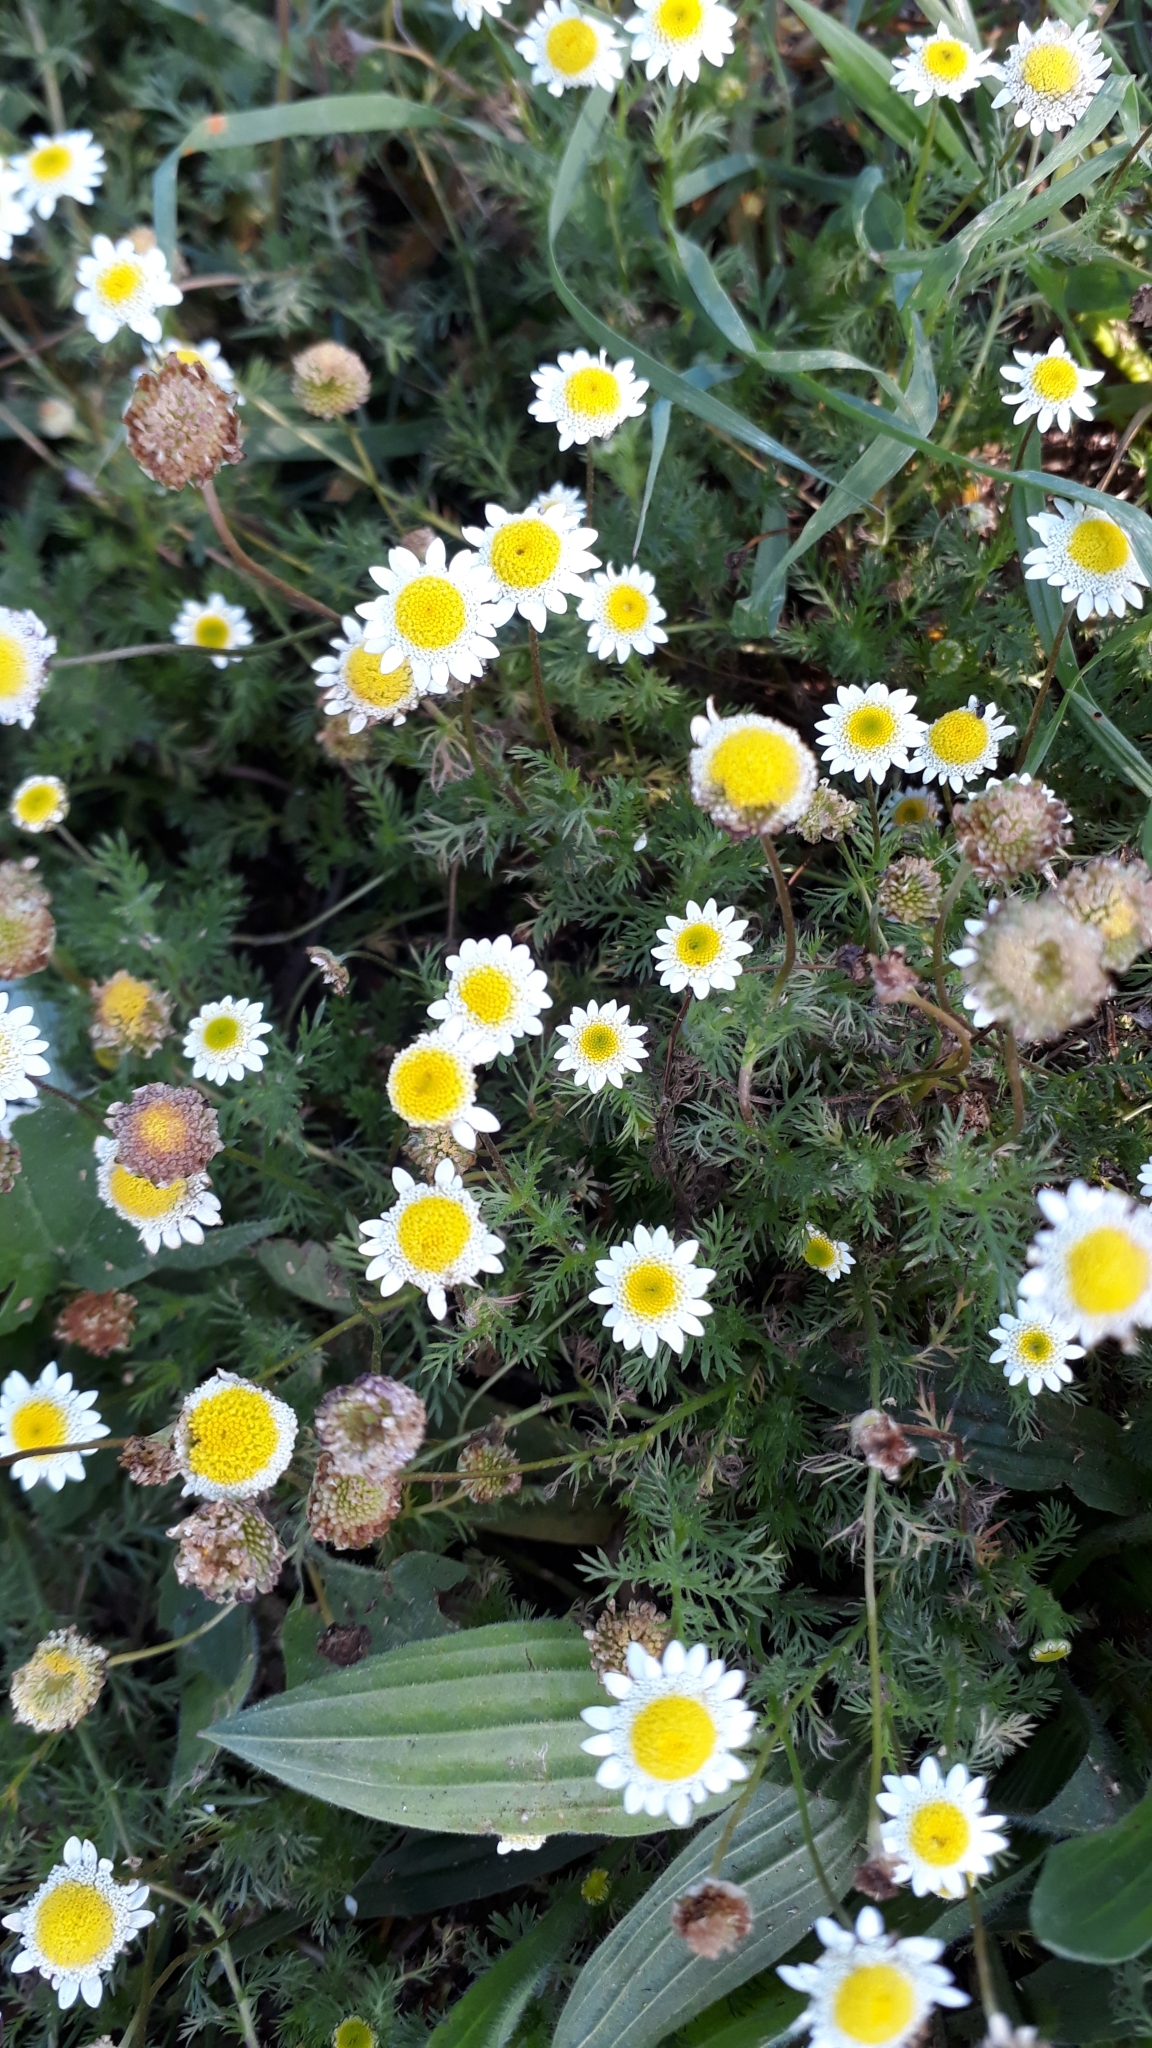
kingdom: Plantae
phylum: Tracheophyta
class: Magnoliopsida
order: Asterales
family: Asteraceae
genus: Cotula
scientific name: Cotula turbinata
